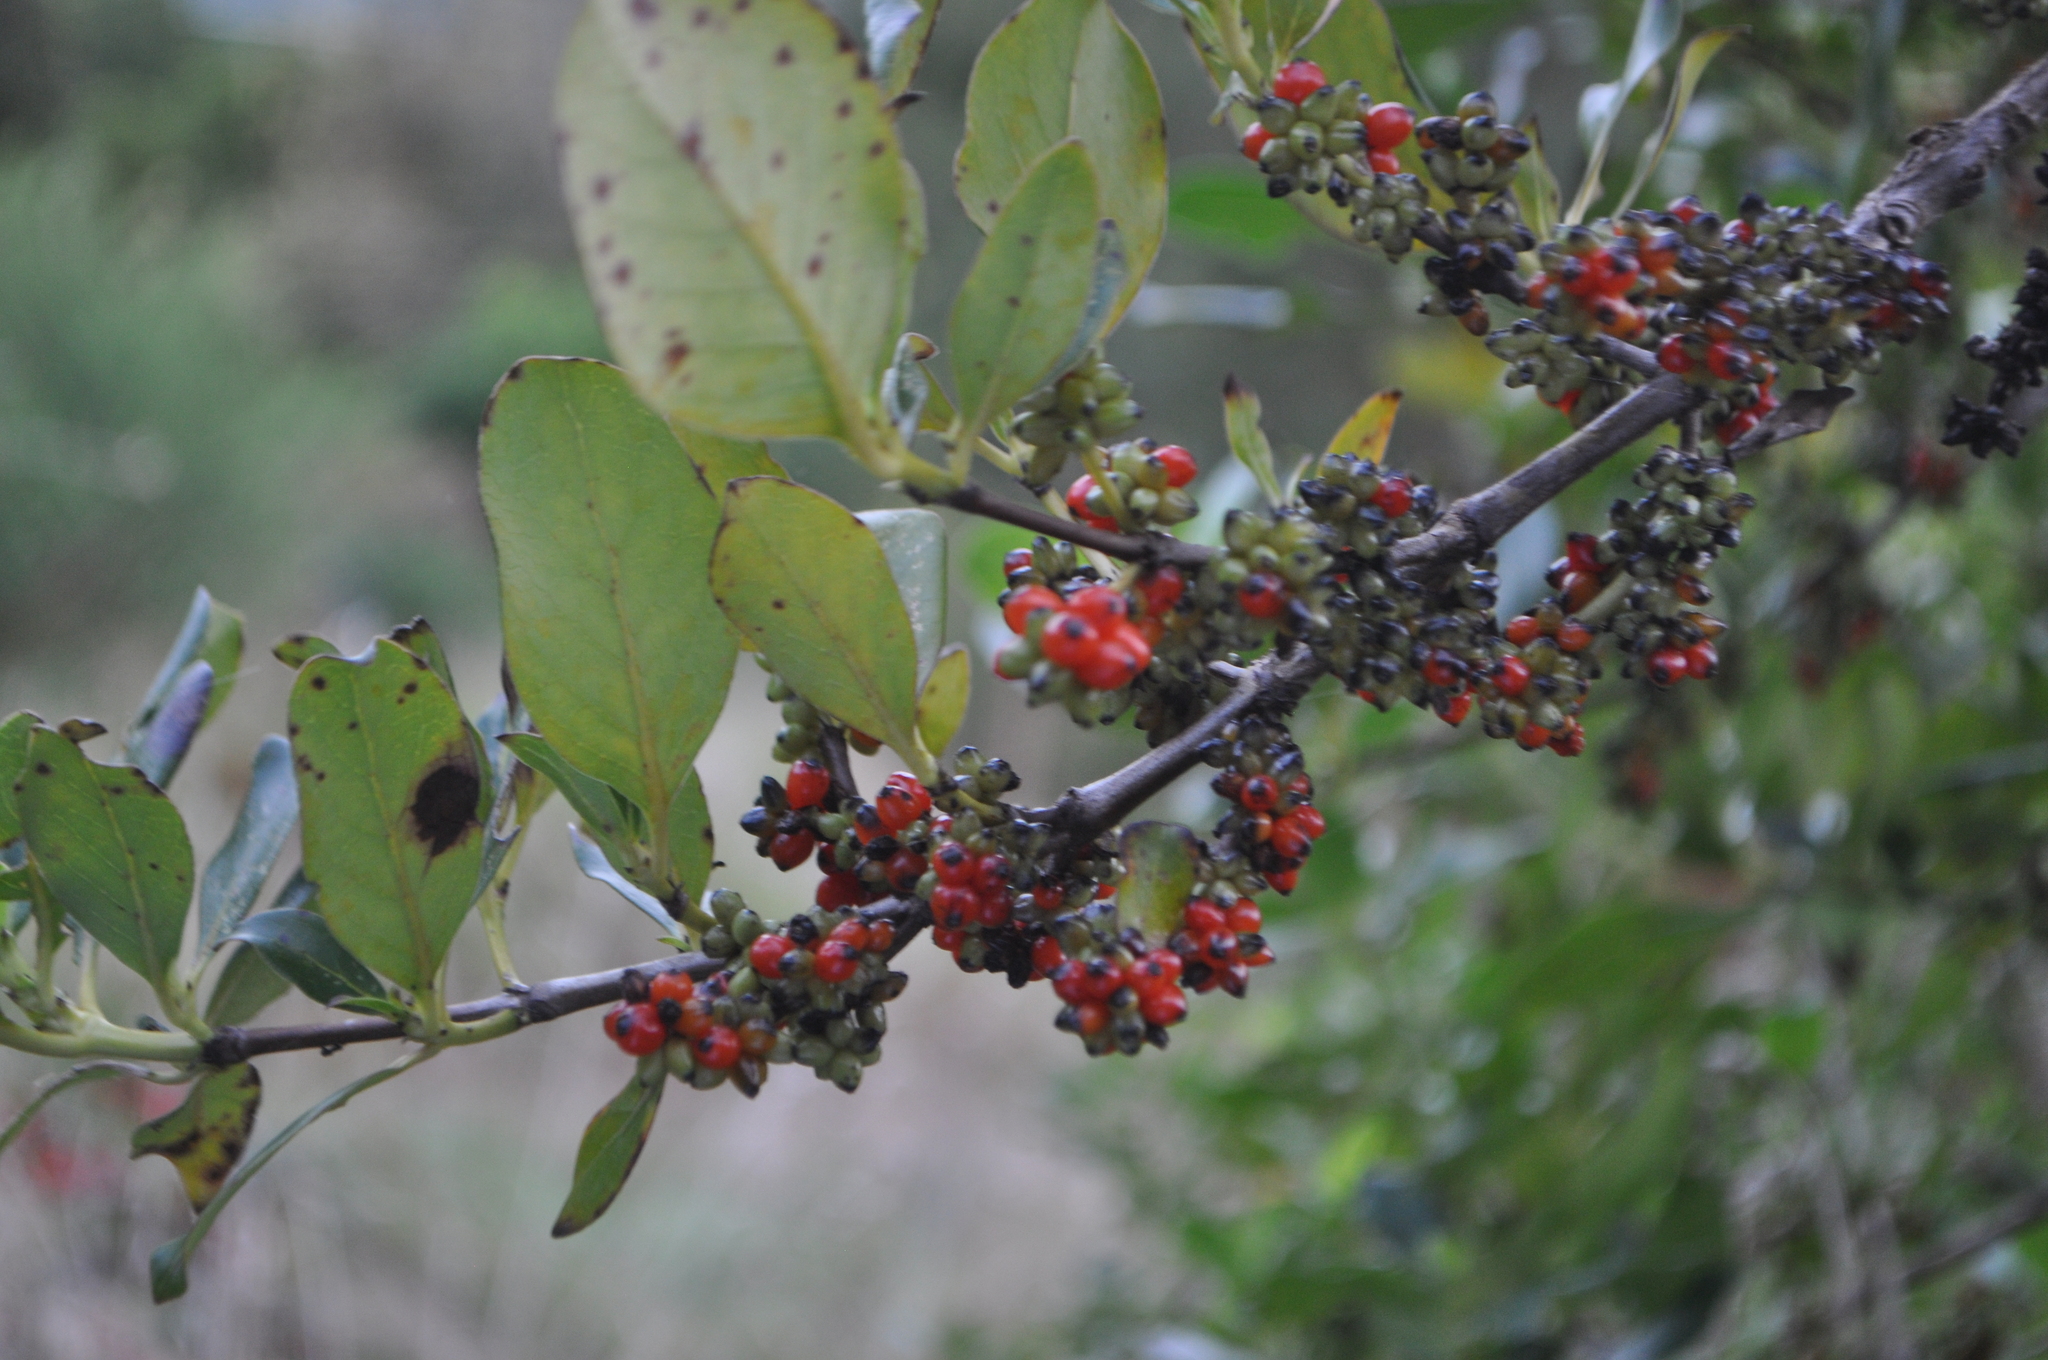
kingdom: Plantae
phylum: Tracheophyta
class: Magnoliopsida
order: Gentianales
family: Rubiaceae
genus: Coprosma
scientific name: Coprosma robusta
